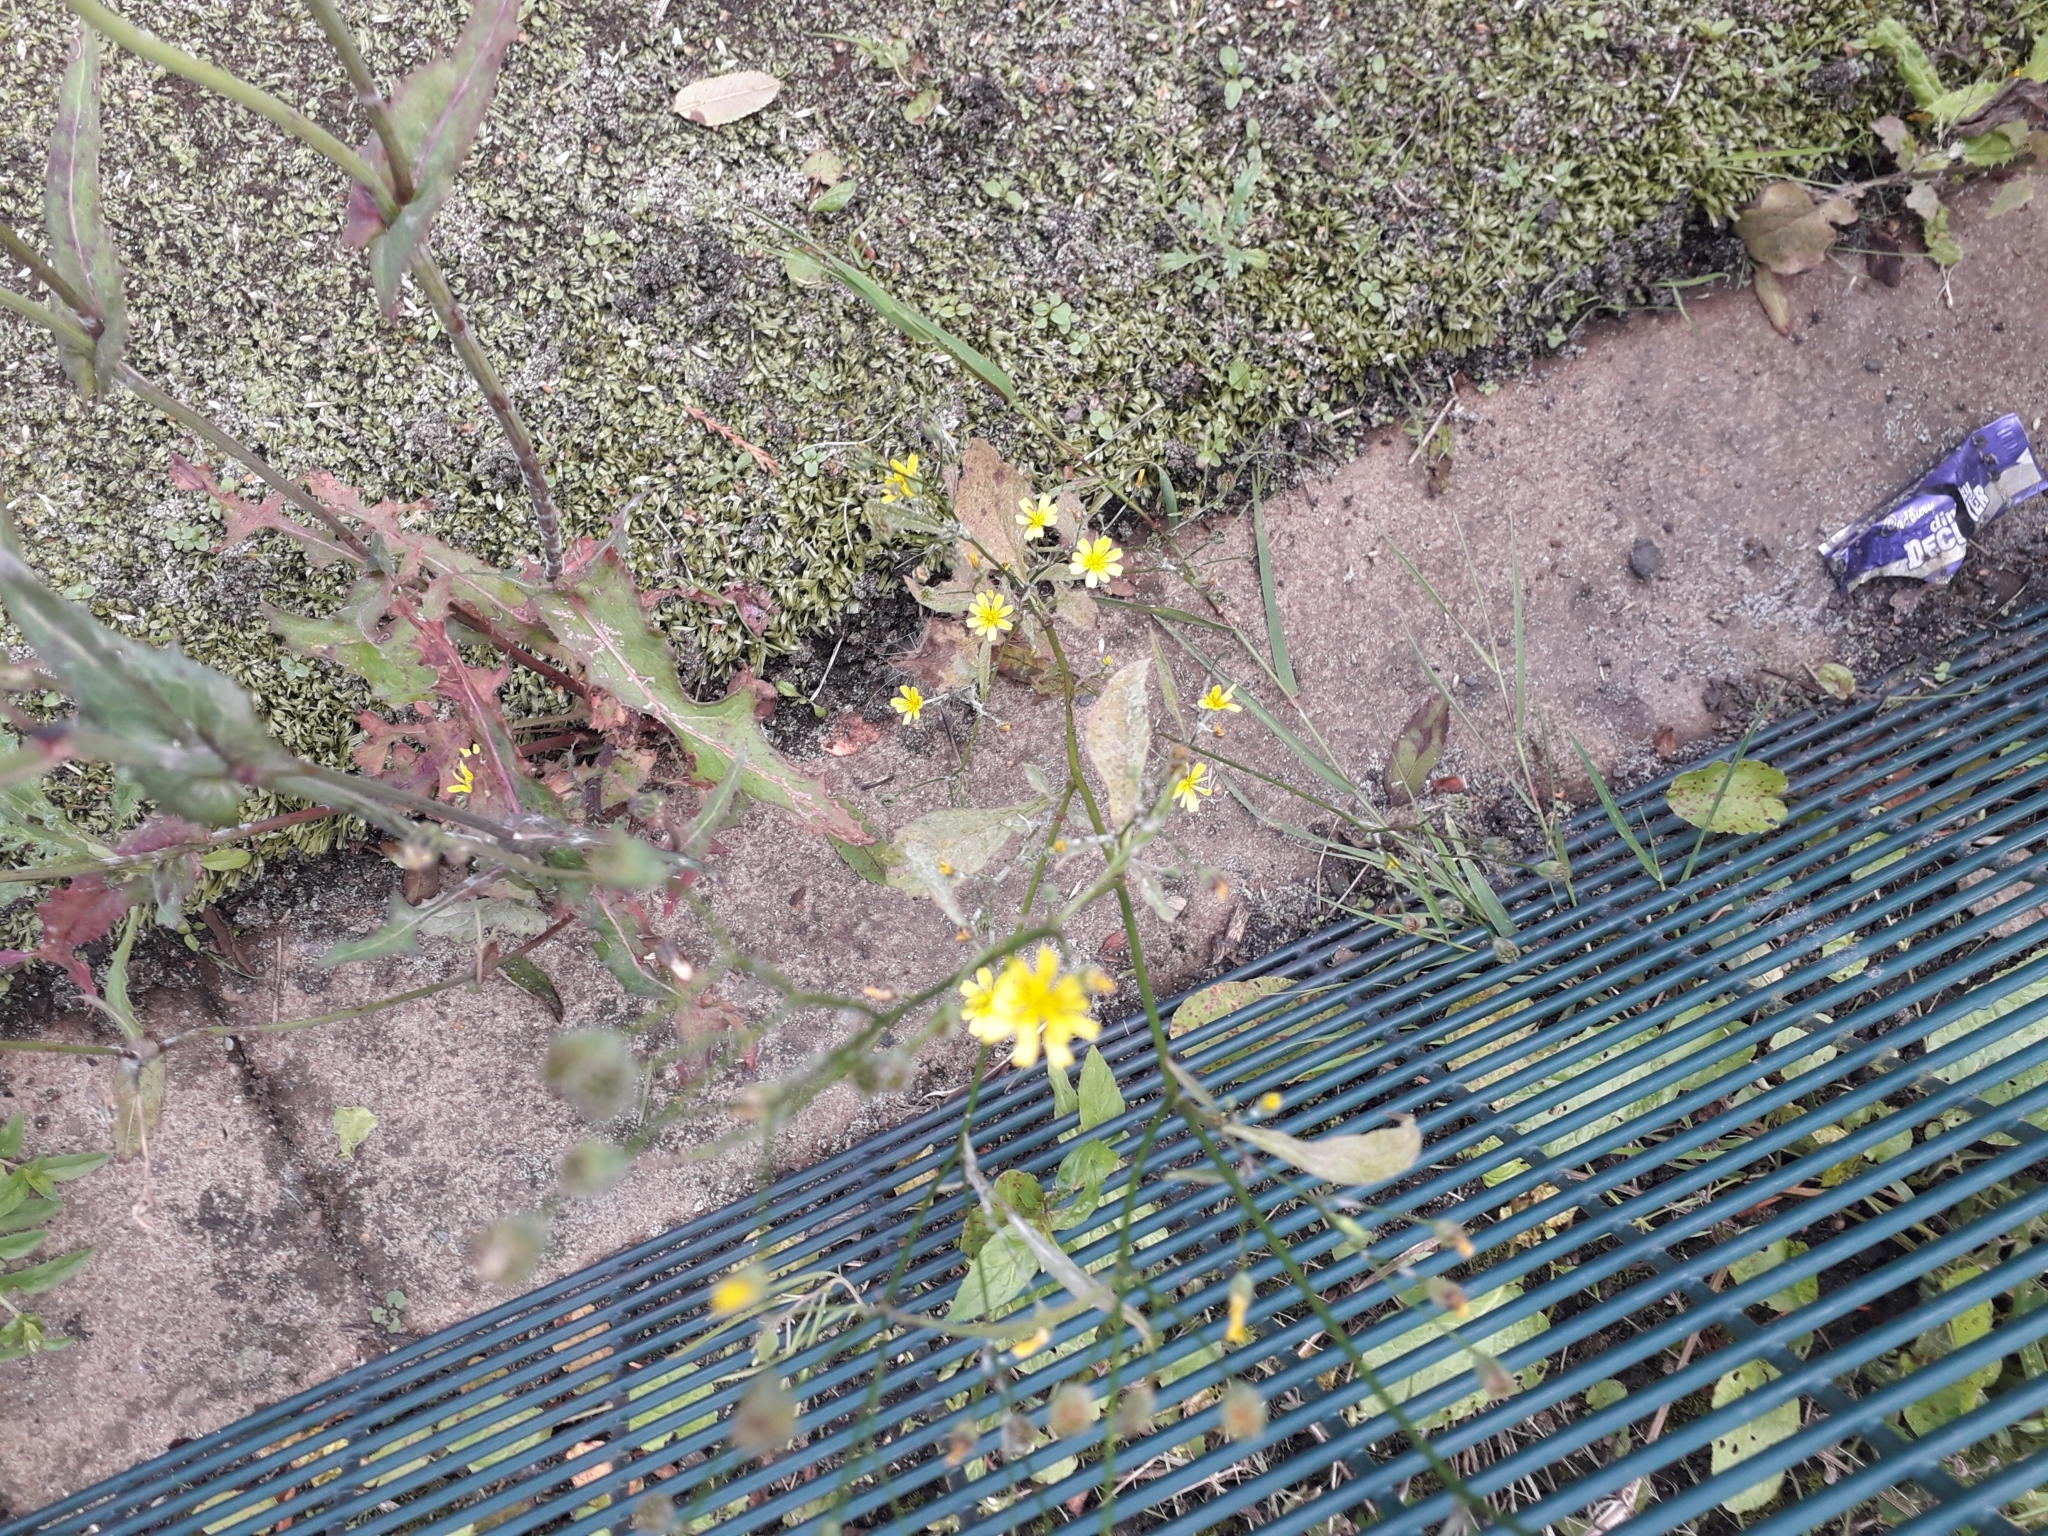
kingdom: Plantae
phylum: Tracheophyta
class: Magnoliopsida
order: Asterales
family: Asteraceae
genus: Lapsana
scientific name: Lapsana communis
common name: Nipplewort
